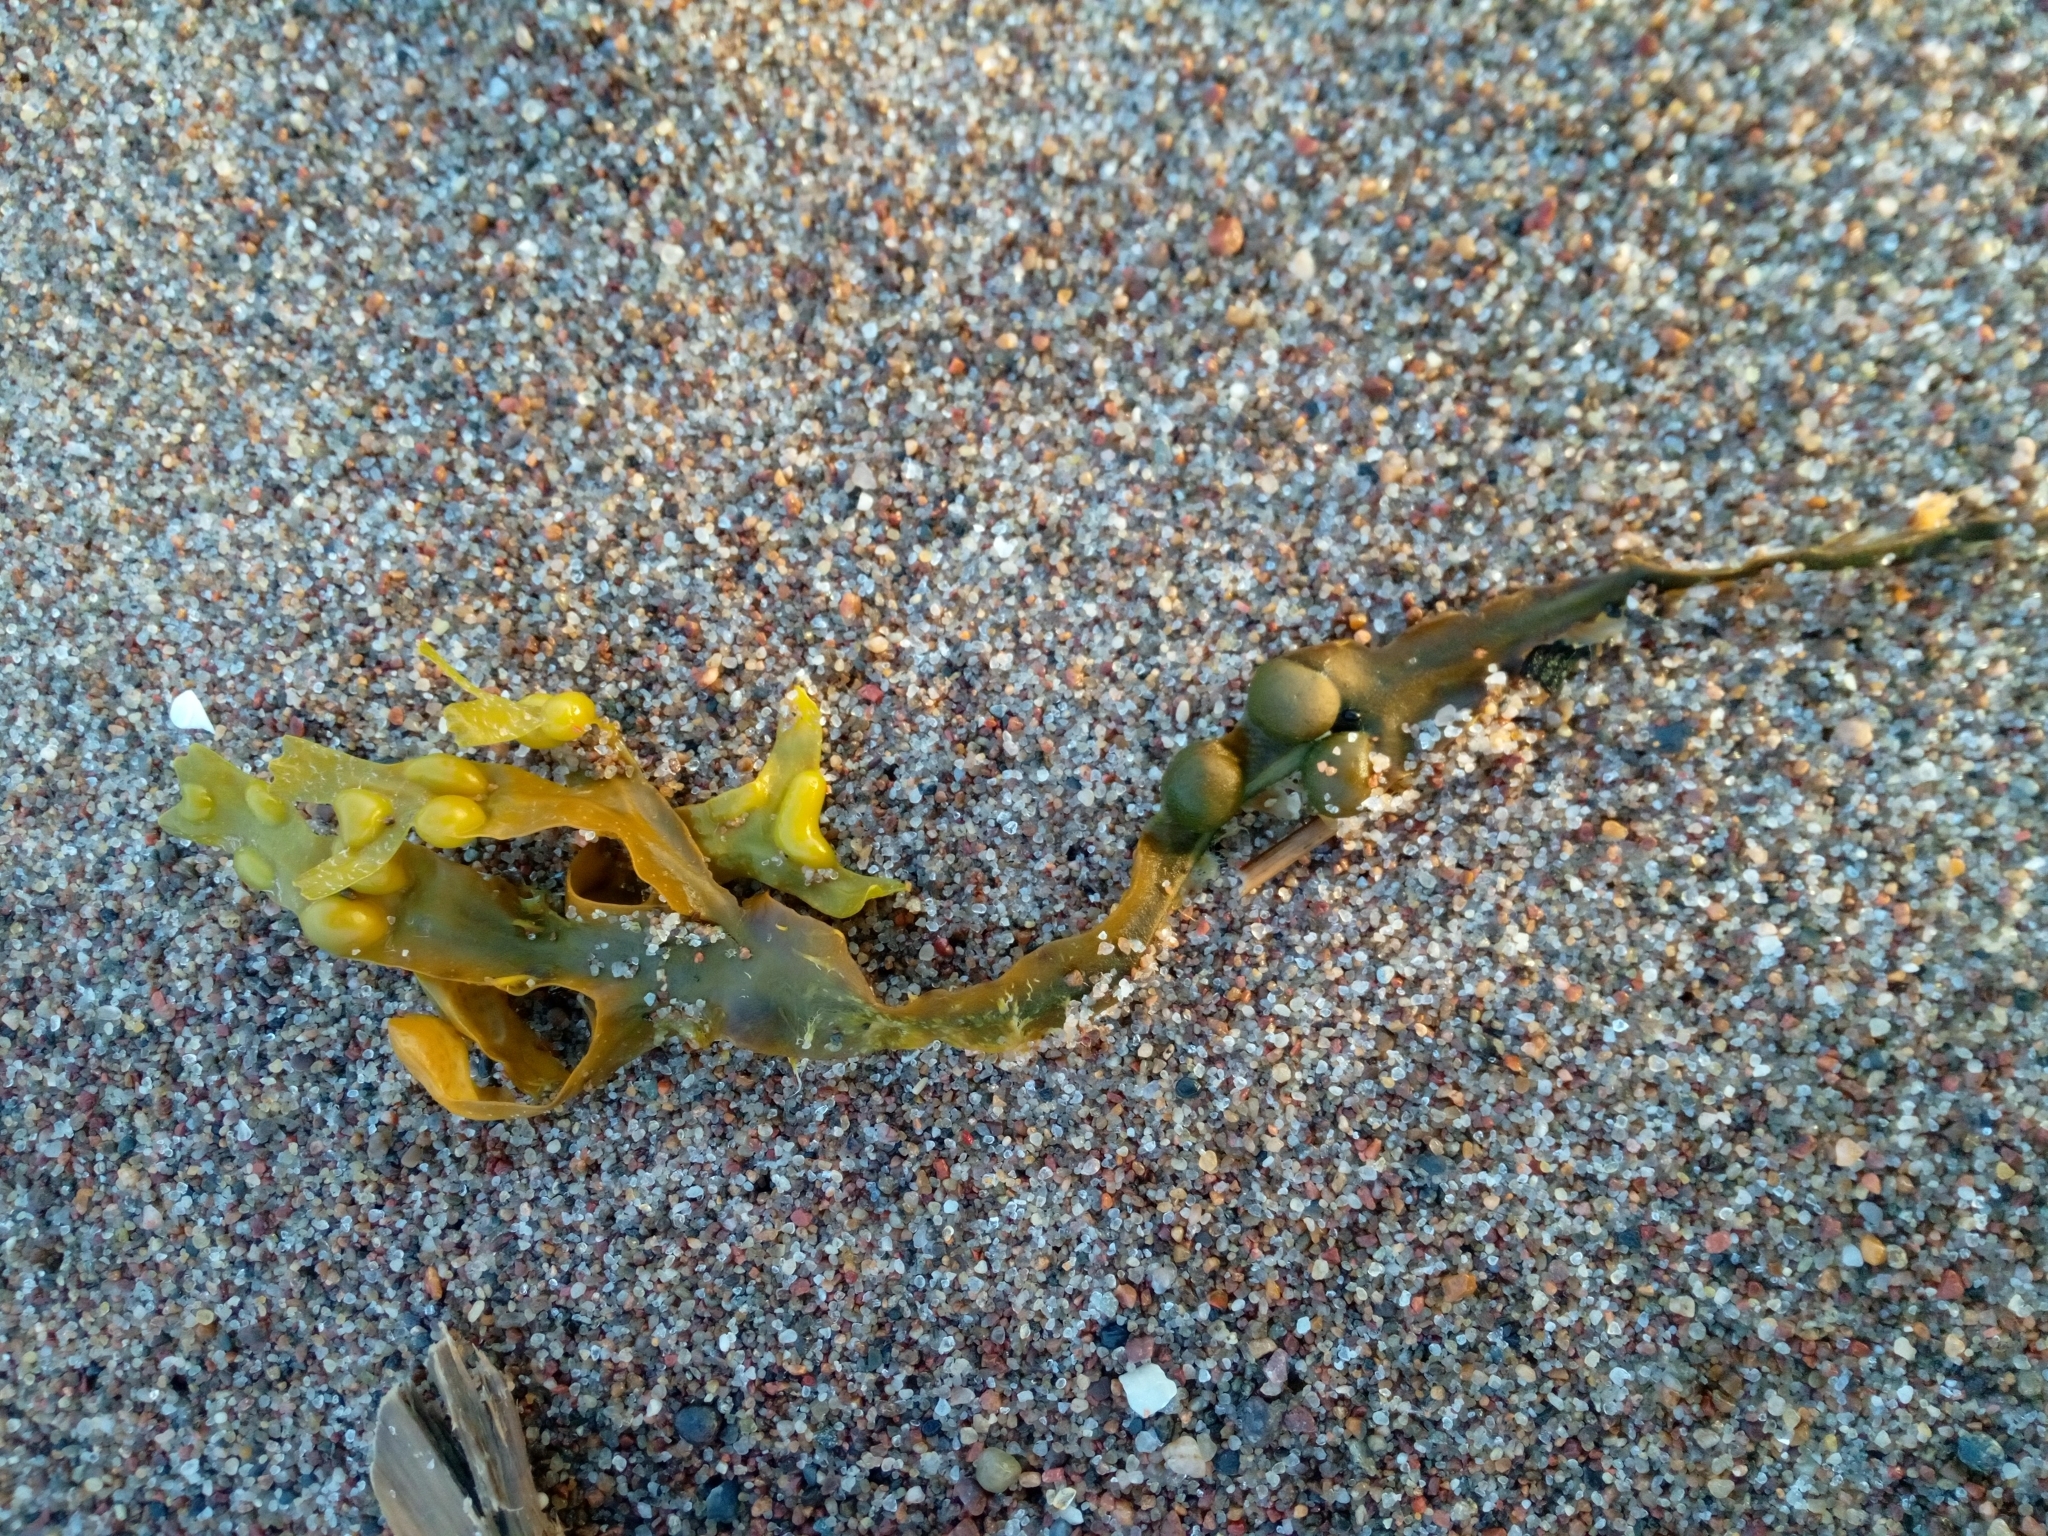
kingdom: Chromista
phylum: Ochrophyta
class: Phaeophyceae
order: Fucales
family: Fucaceae
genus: Fucus
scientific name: Fucus vesiculosus
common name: Bladder wrack
